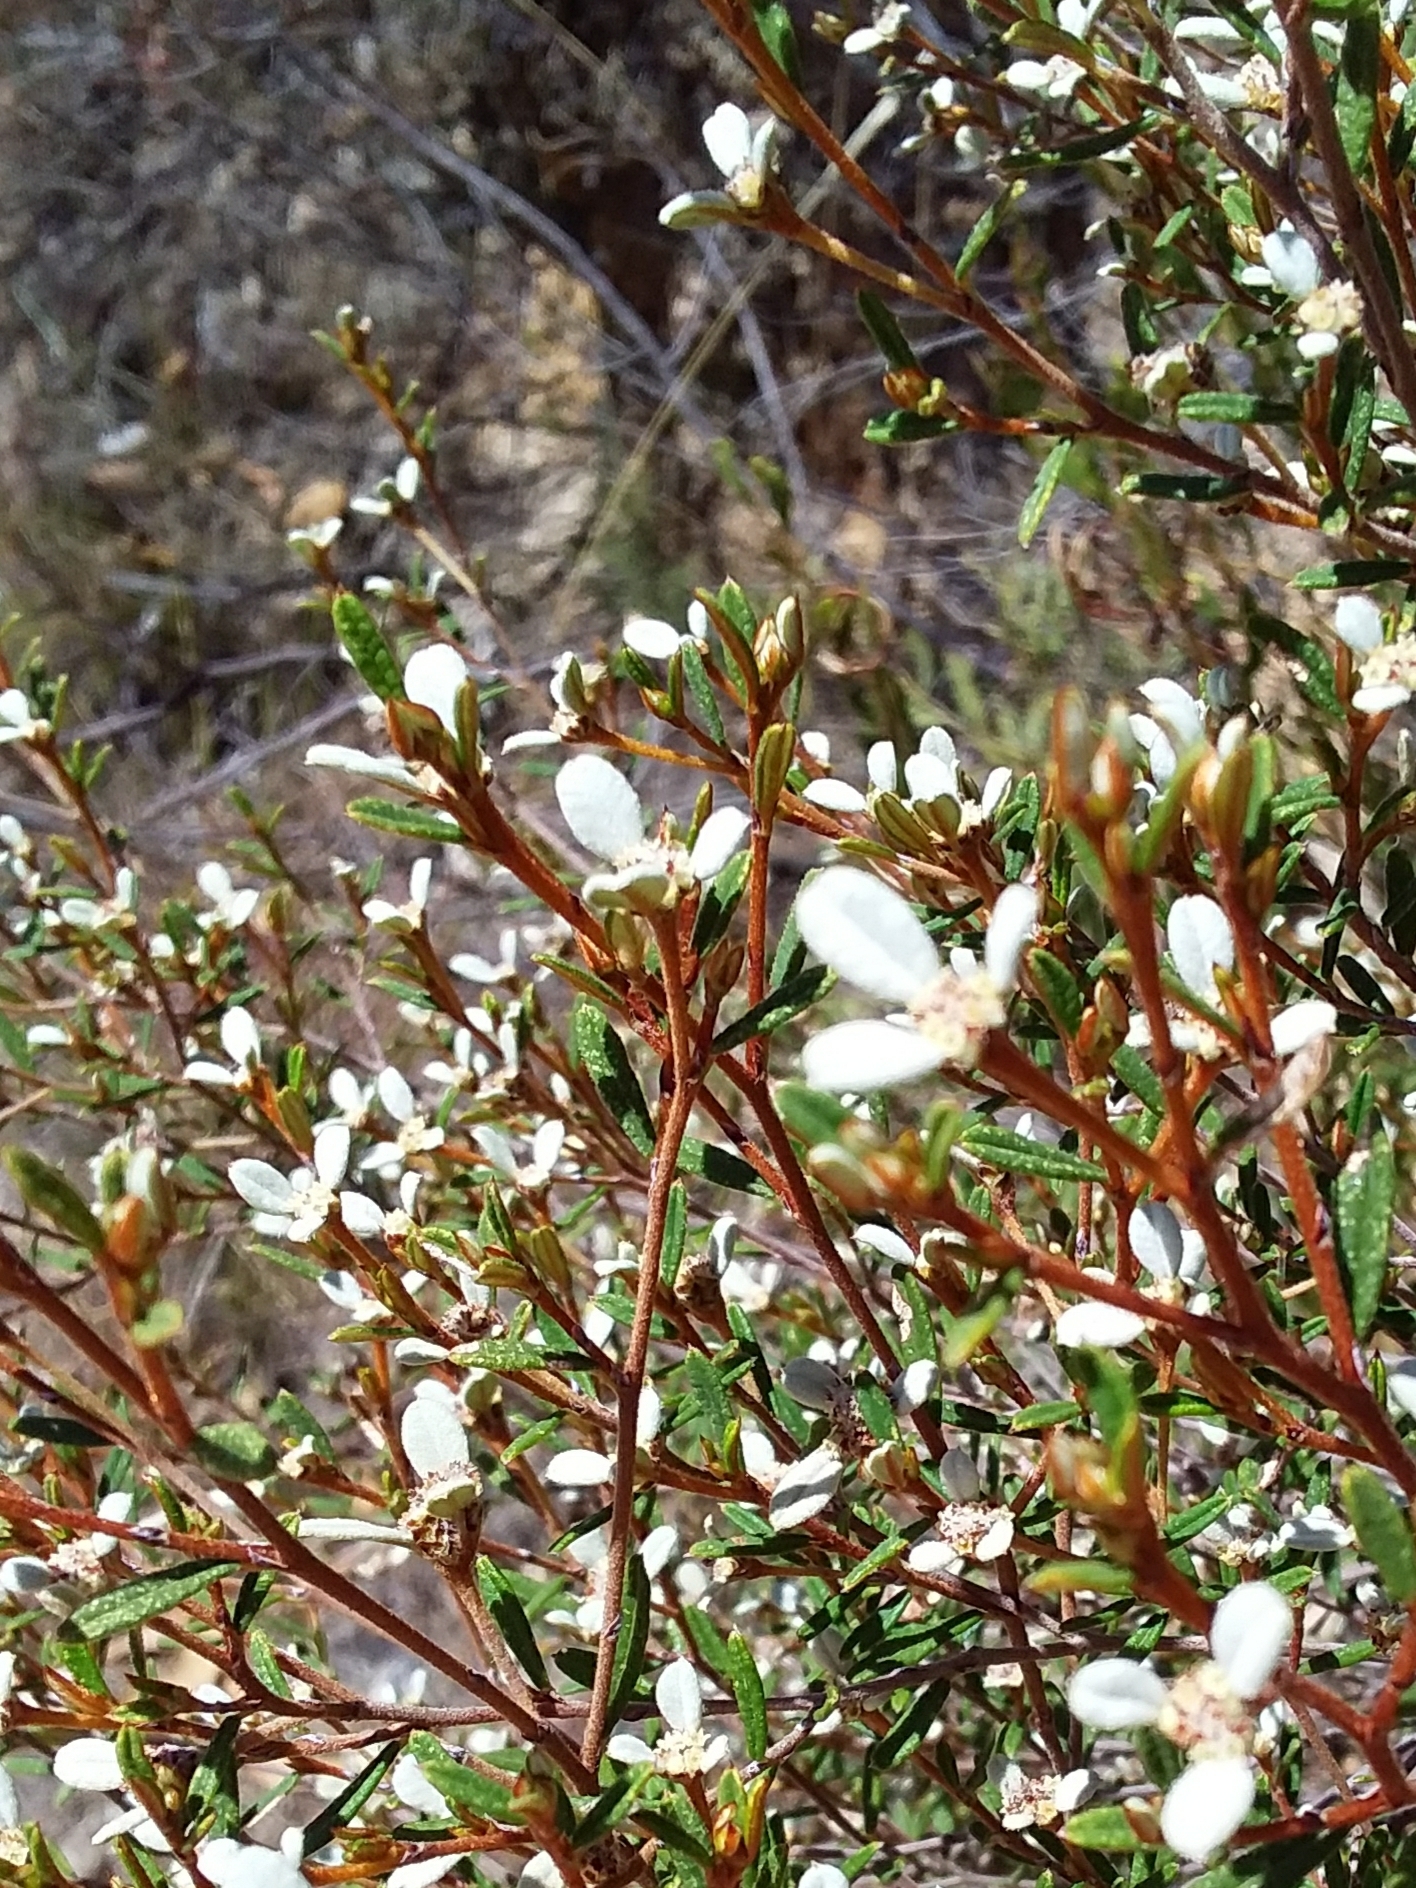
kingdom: Plantae
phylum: Tracheophyta
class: Magnoliopsida
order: Rosales
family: Rhamnaceae
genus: Spyridium
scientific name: Spyridium vexilliferum
